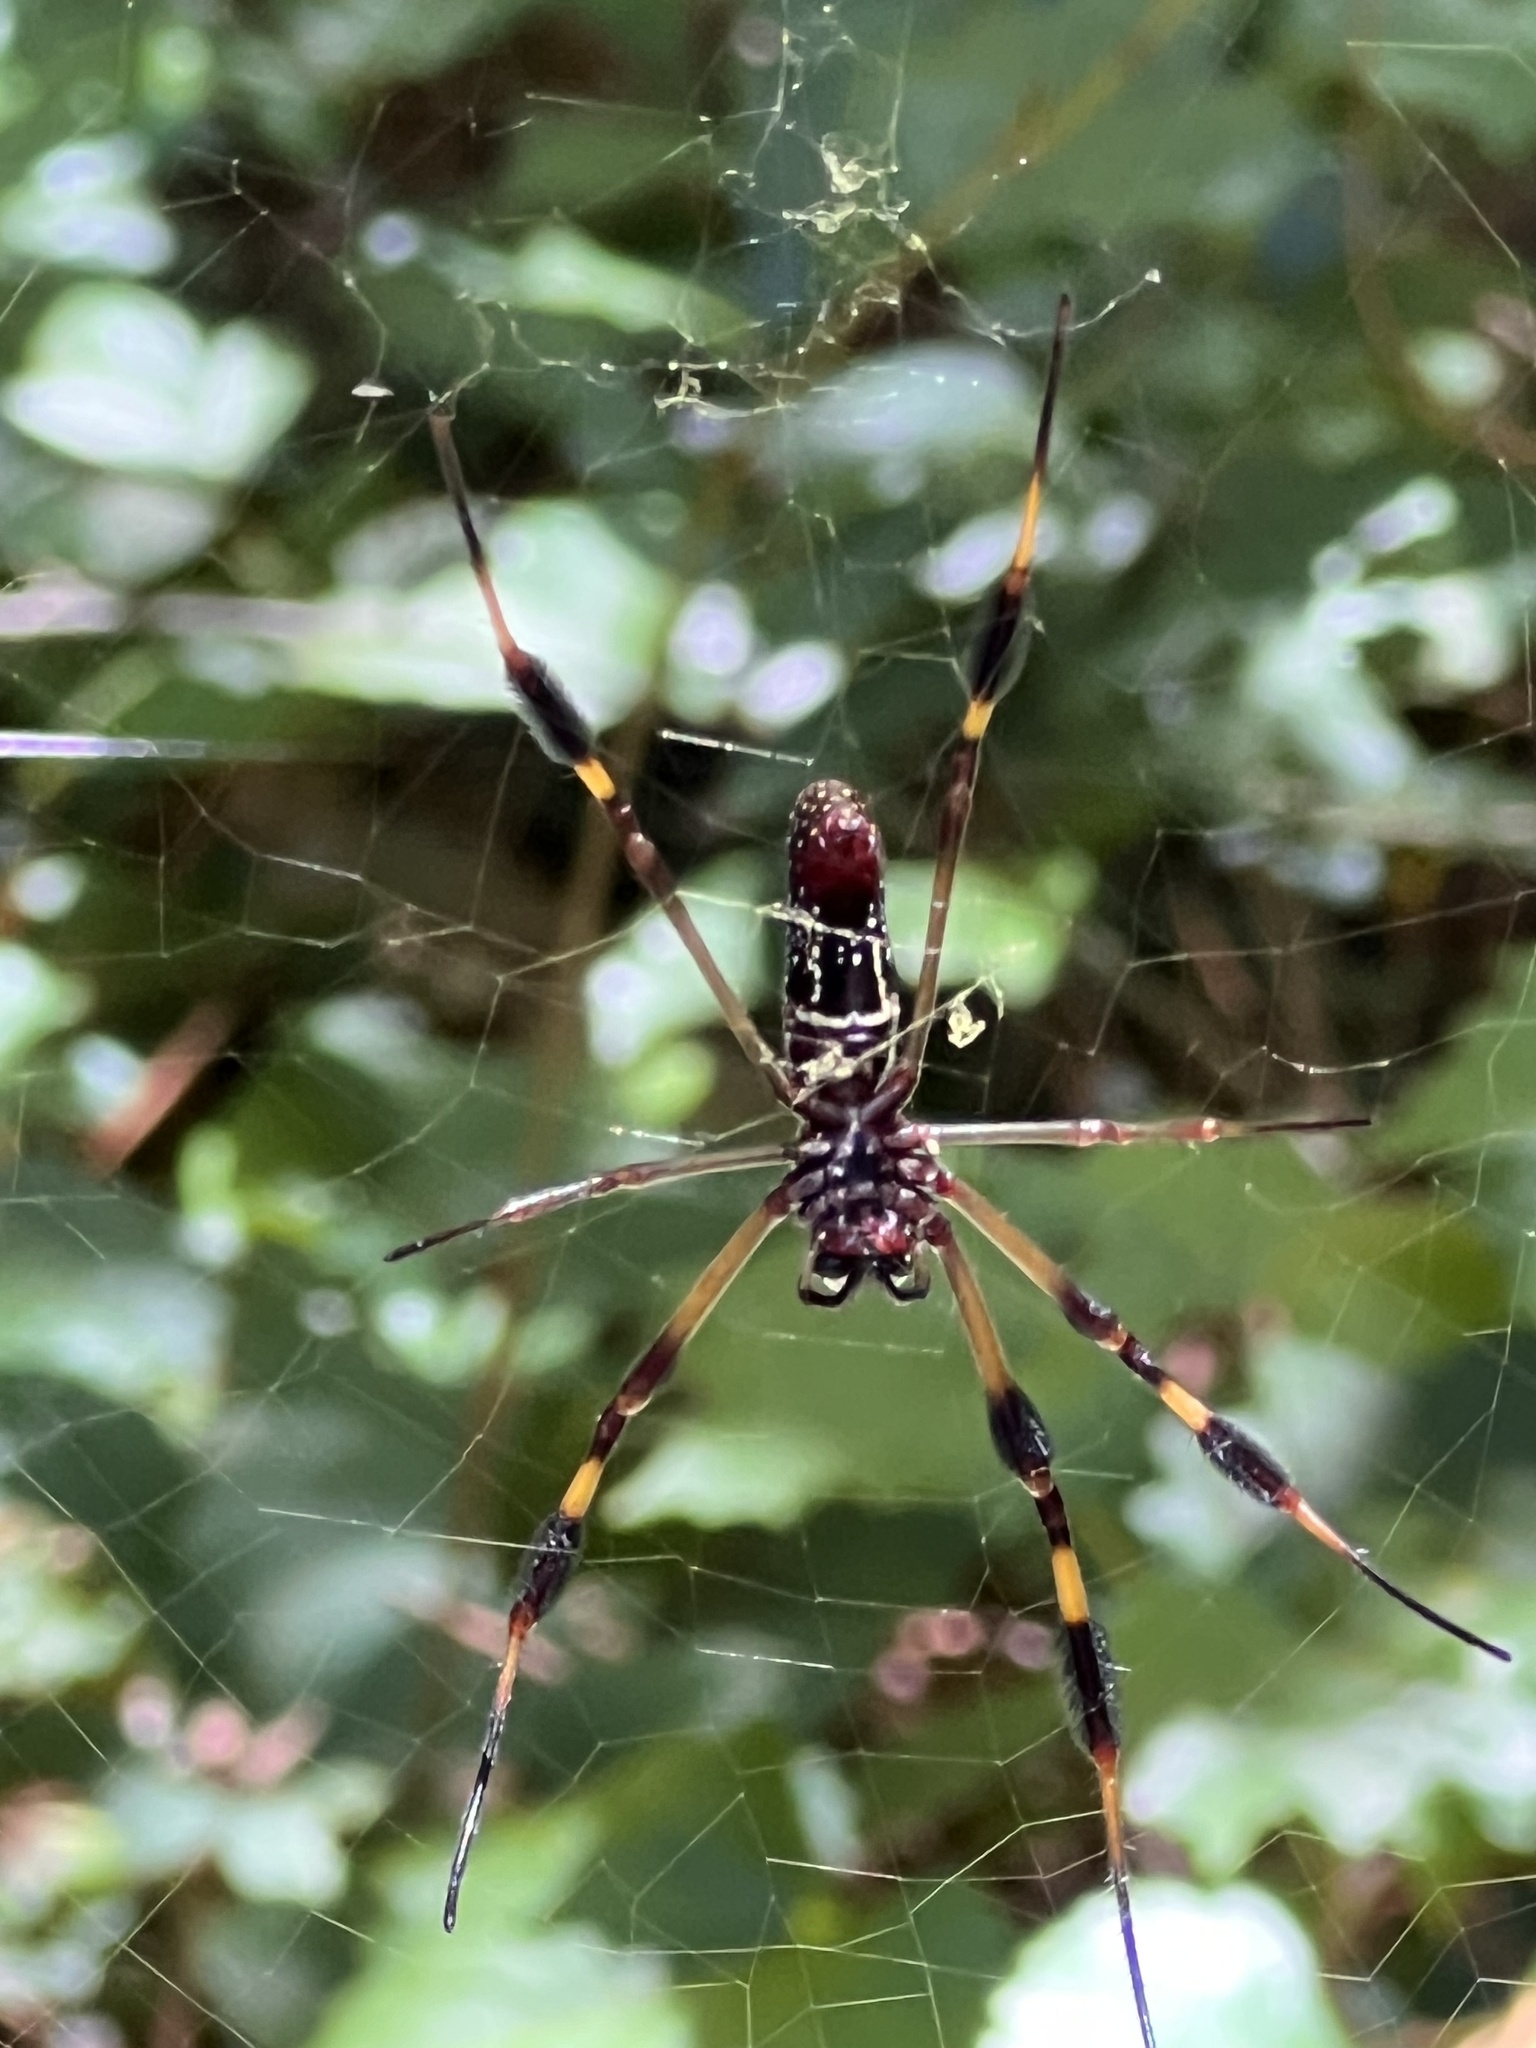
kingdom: Animalia
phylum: Arthropoda
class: Arachnida
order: Araneae
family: Araneidae
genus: Trichonephila
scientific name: Trichonephila clavipes
